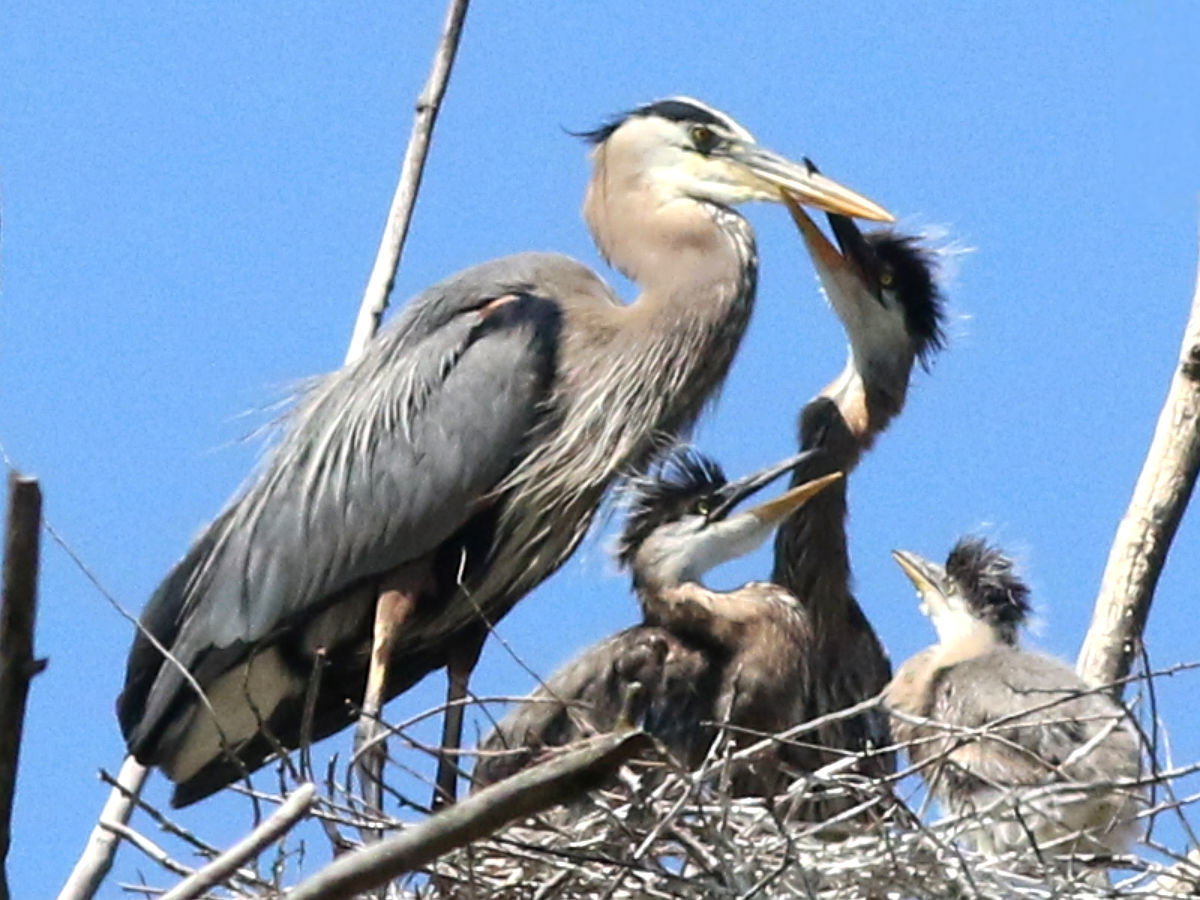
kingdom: Animalia
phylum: Chordata
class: Aves
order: Pelecaniformes
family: Ardeidae
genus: Ardea
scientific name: Ardea herodias
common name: Great blue heron
